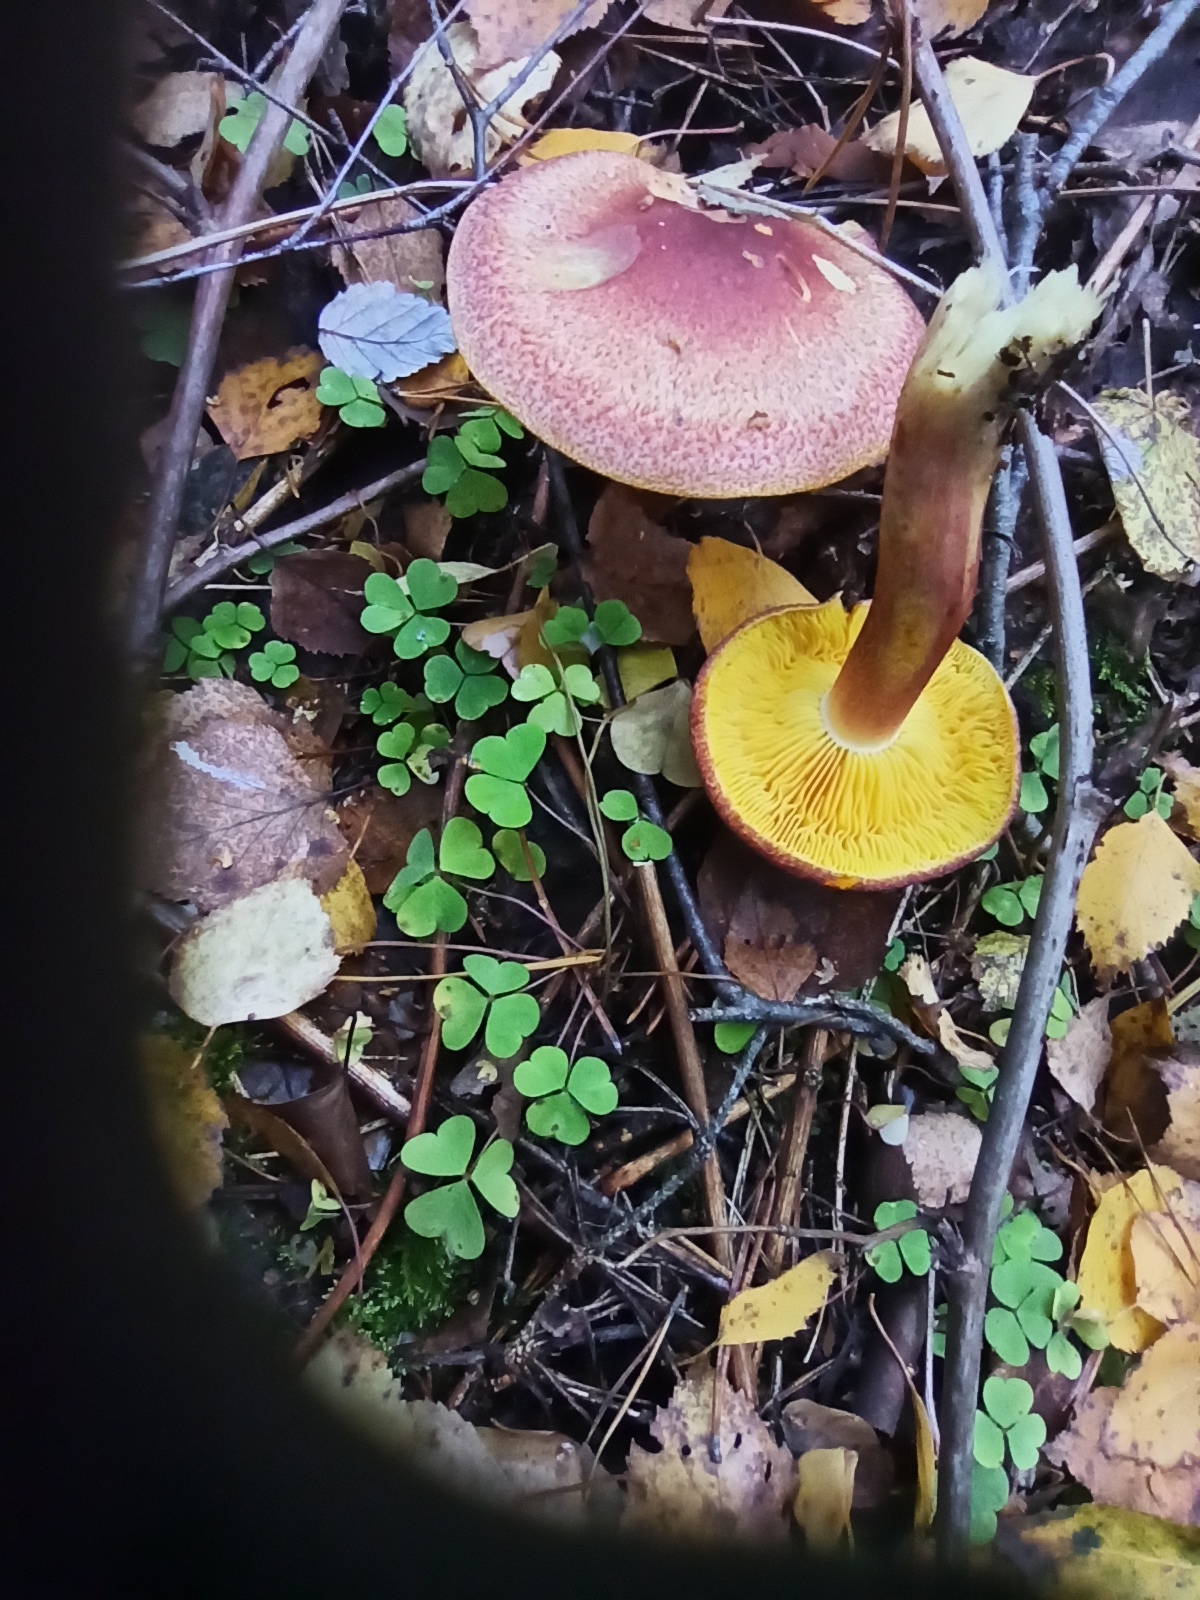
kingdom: Fungi
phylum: Basidiomycota
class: Agaricomycetes
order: Agaricales
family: Tricholomataceae
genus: Tricholomopsis
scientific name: Tricholomopsis rutilans
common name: Plums and custard
